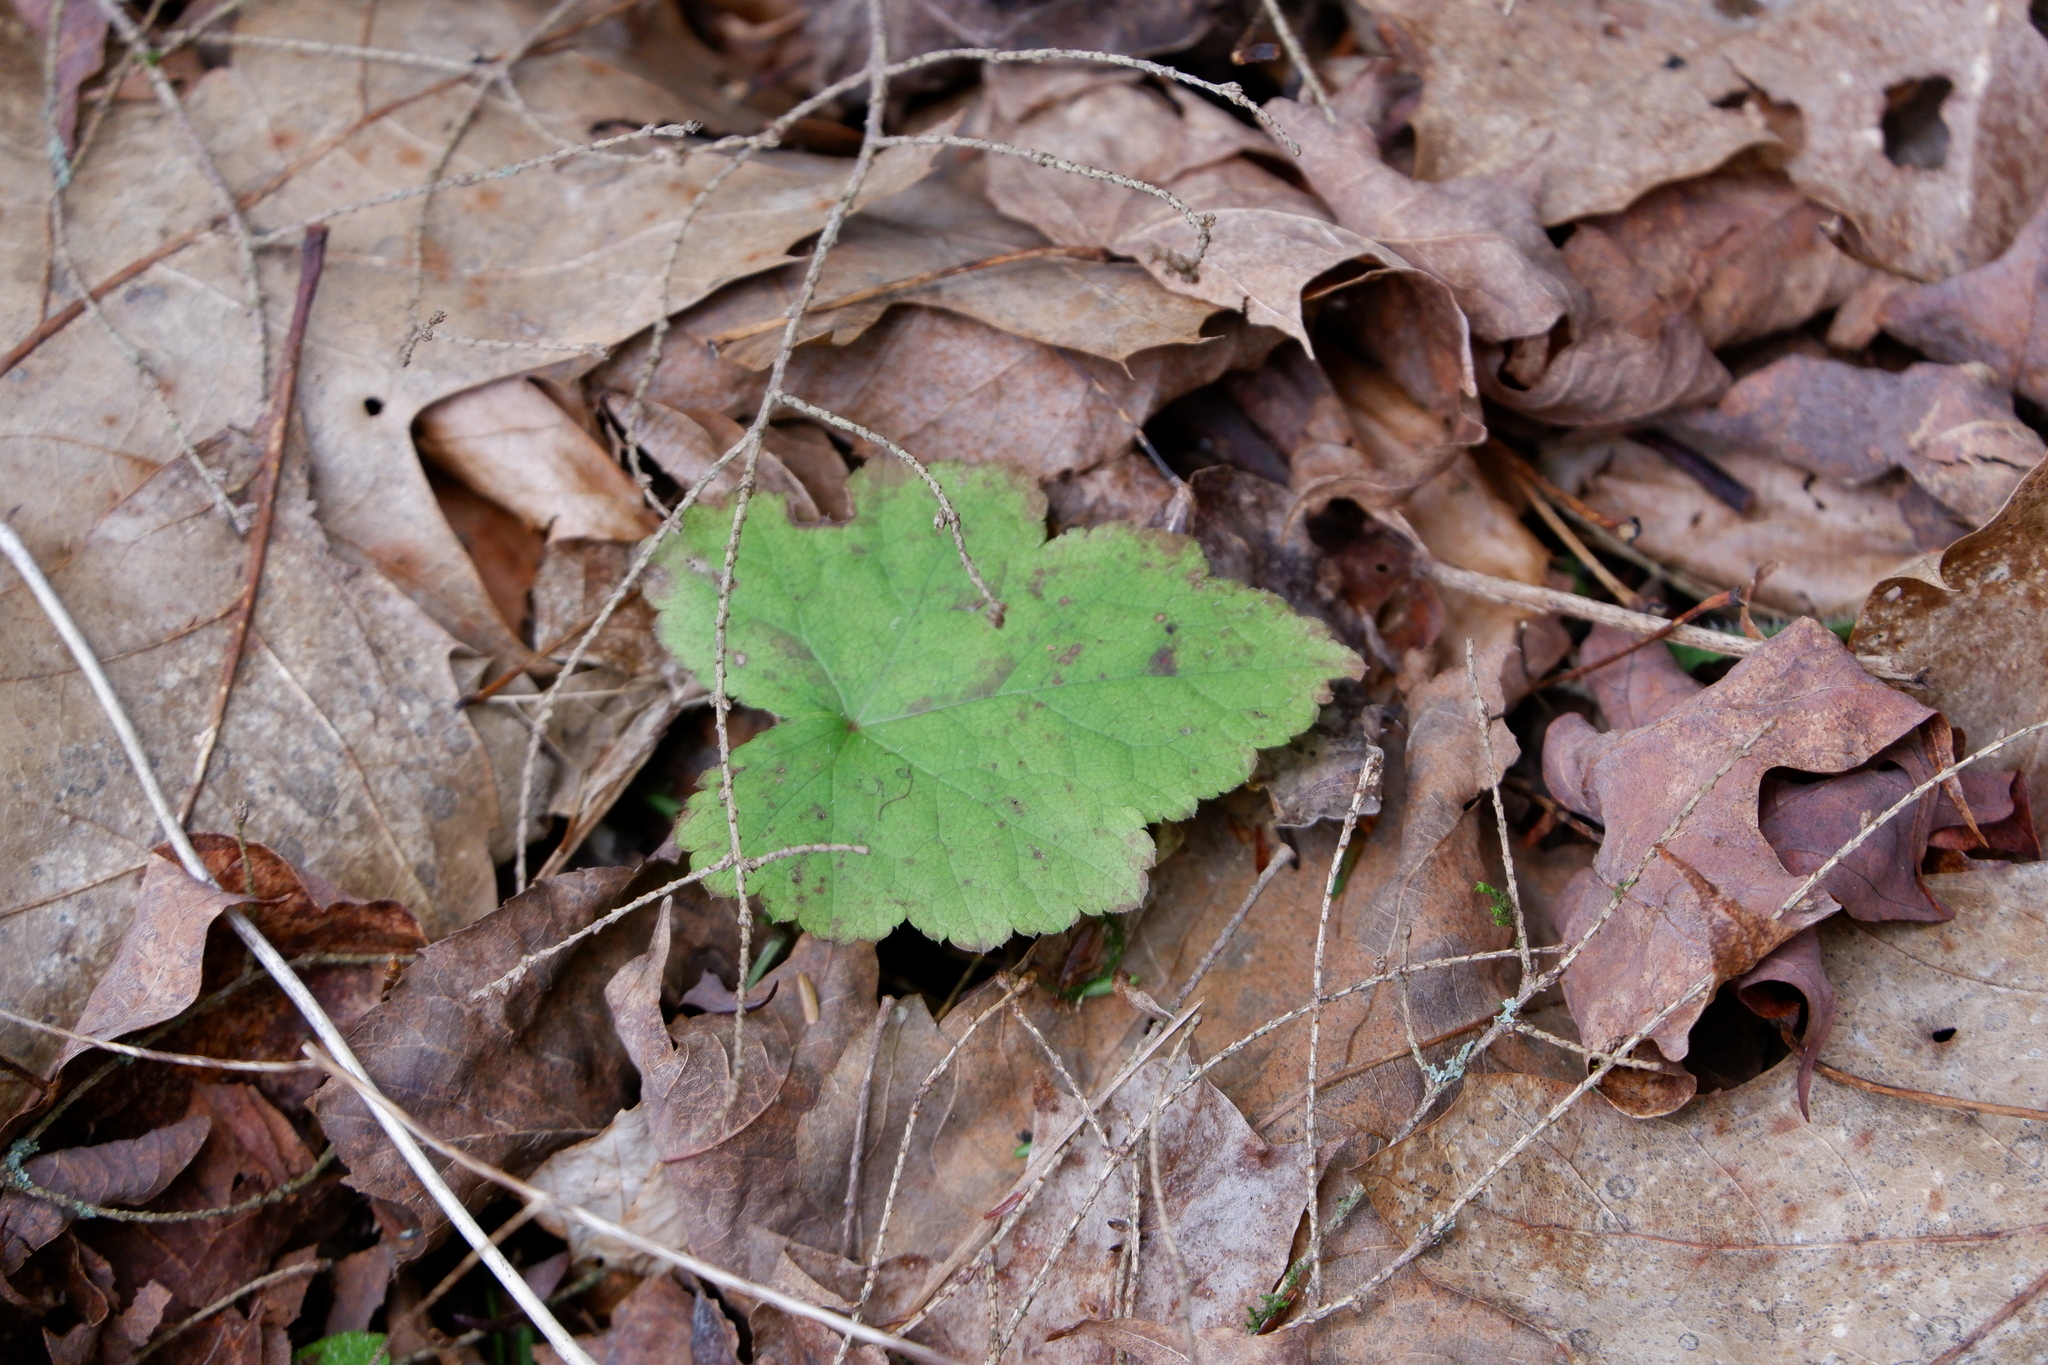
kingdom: Plantae
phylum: Tracheophyta
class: Magnoliopsida
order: Saxifragales
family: Saxifragaceae
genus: Tiarella
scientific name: Tiarella stolonifera
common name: Stoloniferous foamflower
